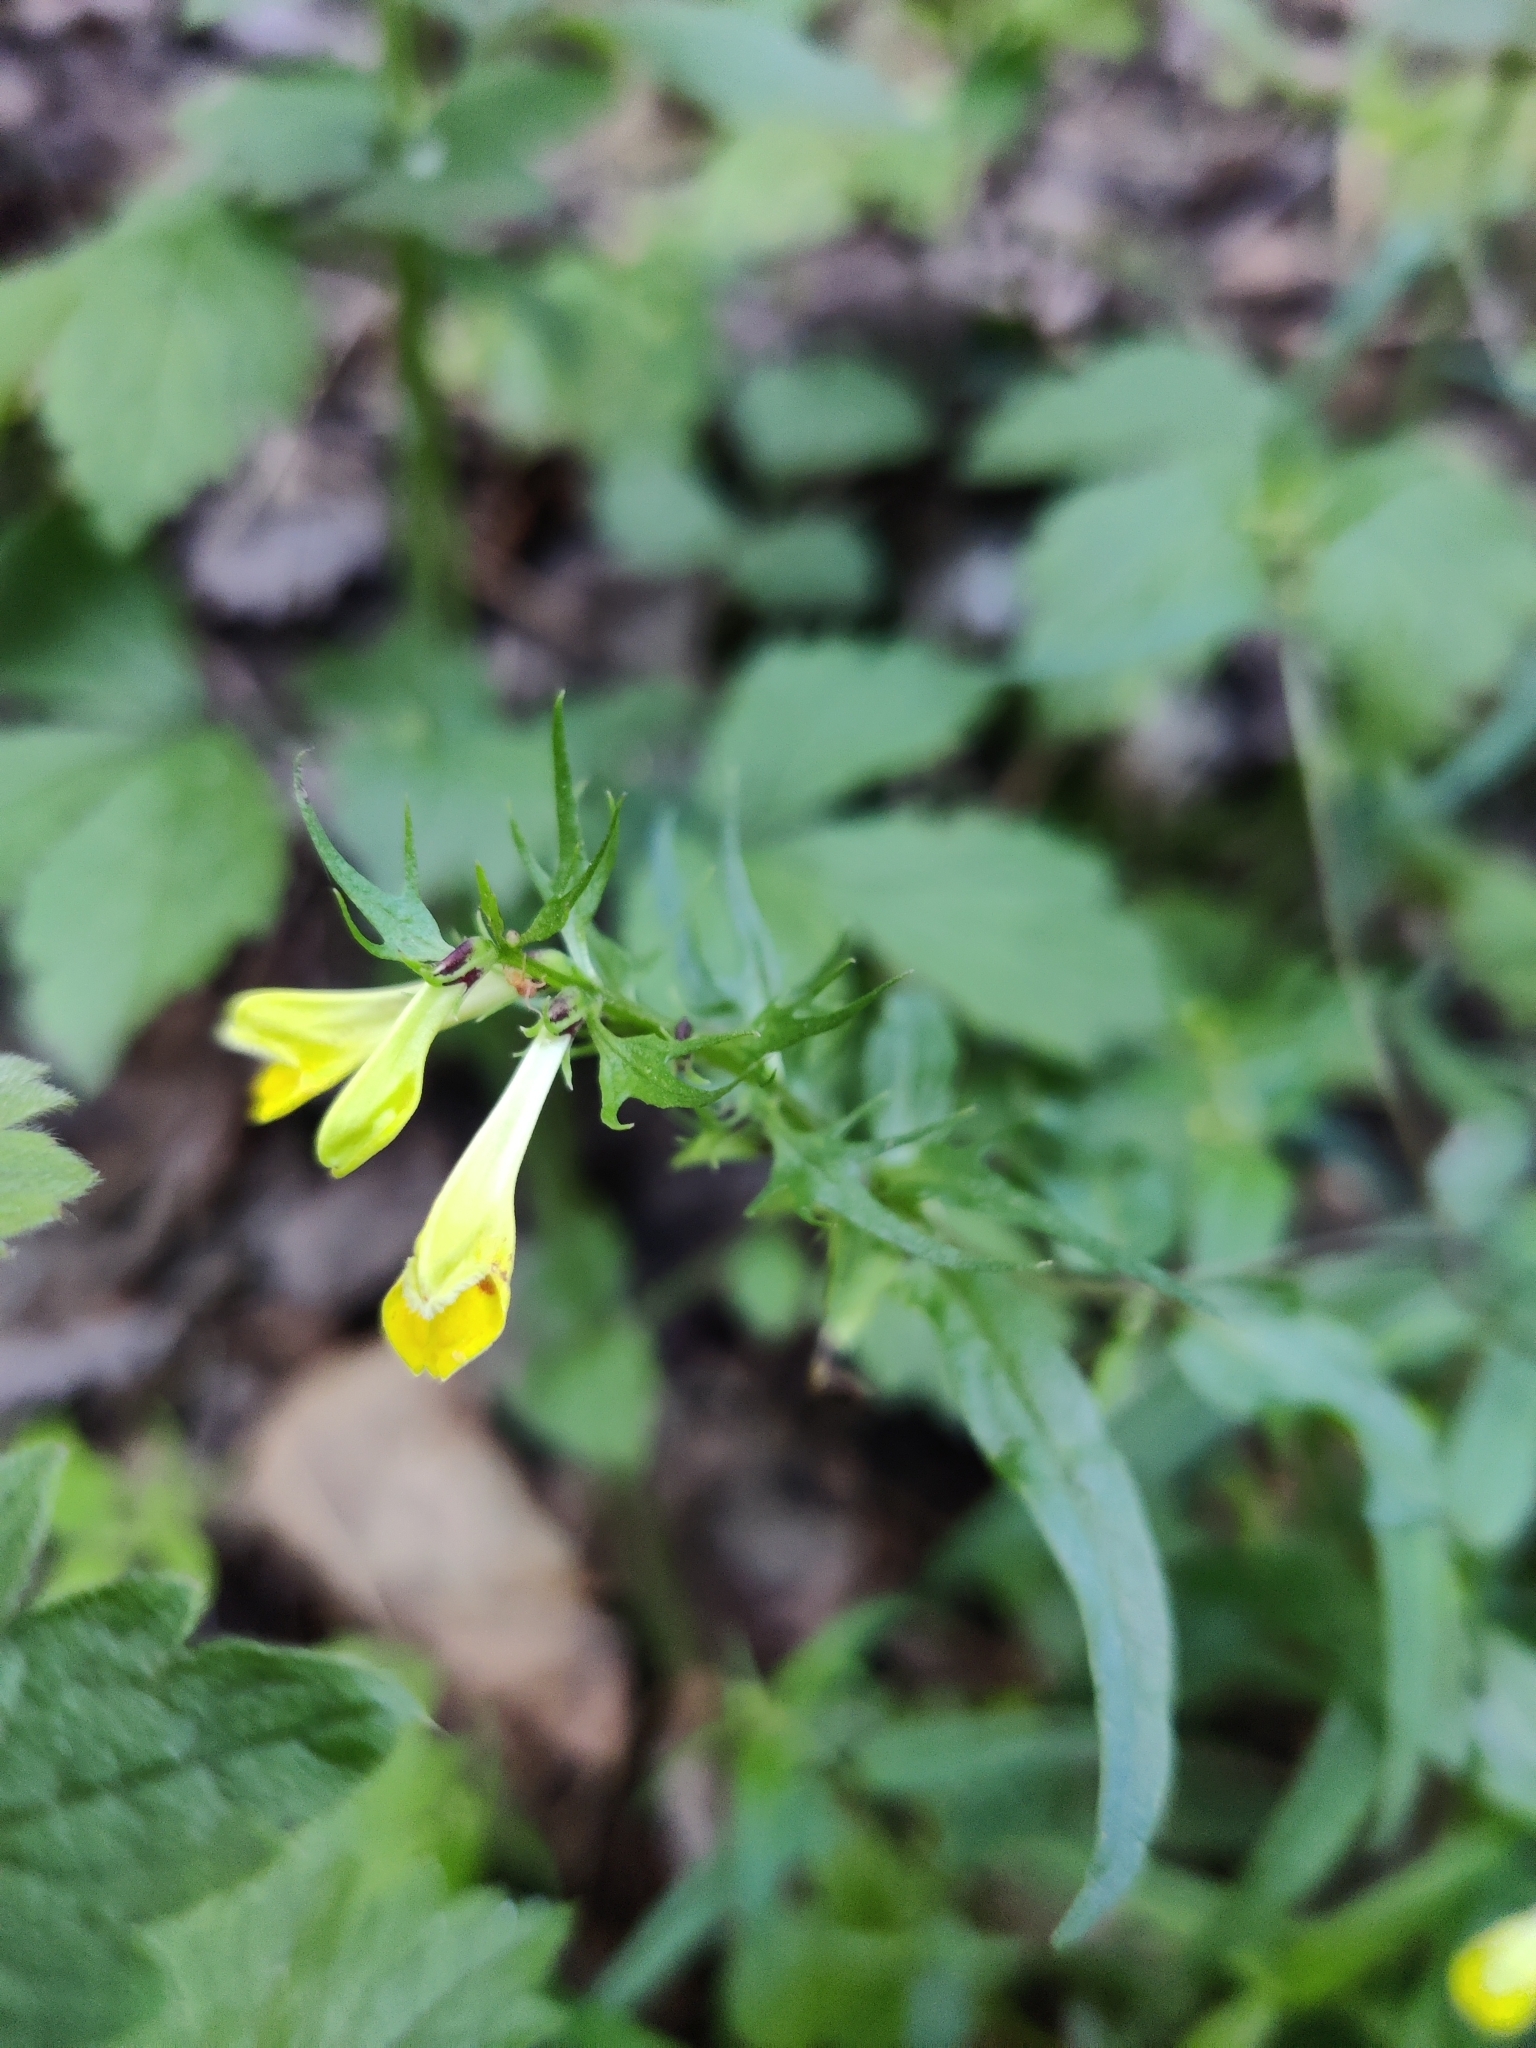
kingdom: Plantae
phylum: Tracheophyta
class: Magnoliopsida
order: Lamiales
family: Orobanchaceae
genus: Melampyrum
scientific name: Melampyrum pratense
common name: Common cow-wheat
